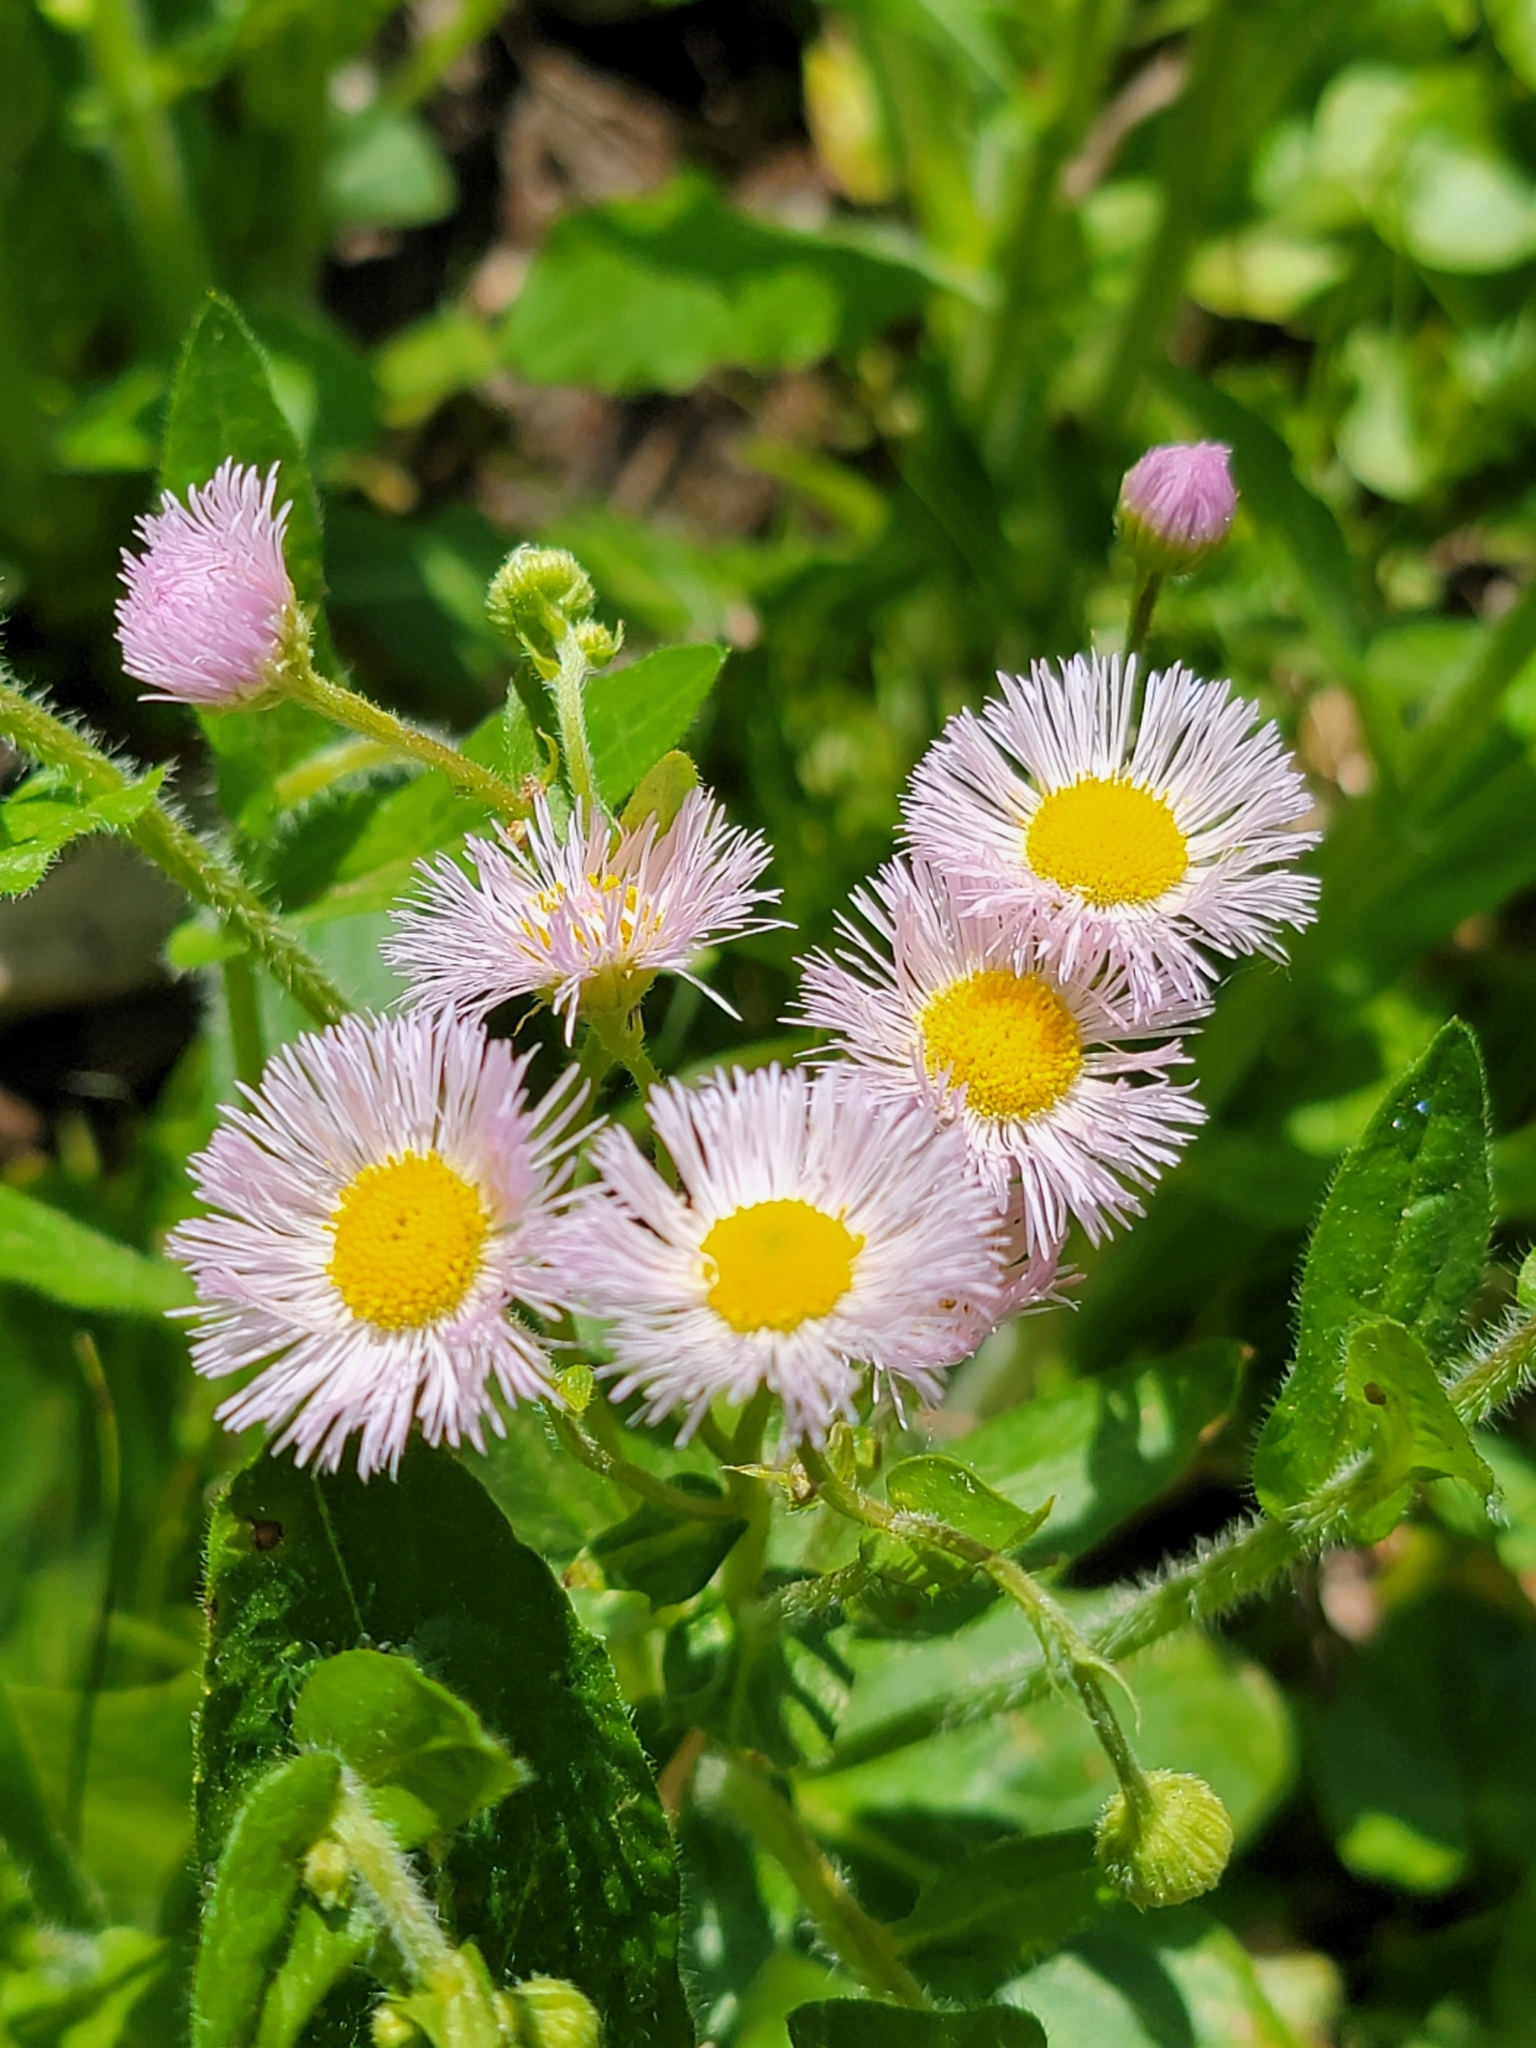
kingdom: Plantae
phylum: Tracheophyta
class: Magnoliopsida
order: Asterales
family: Asteraceae
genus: Erigeron
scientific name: Erigeron philadelphicus
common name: Robin's-plantain
